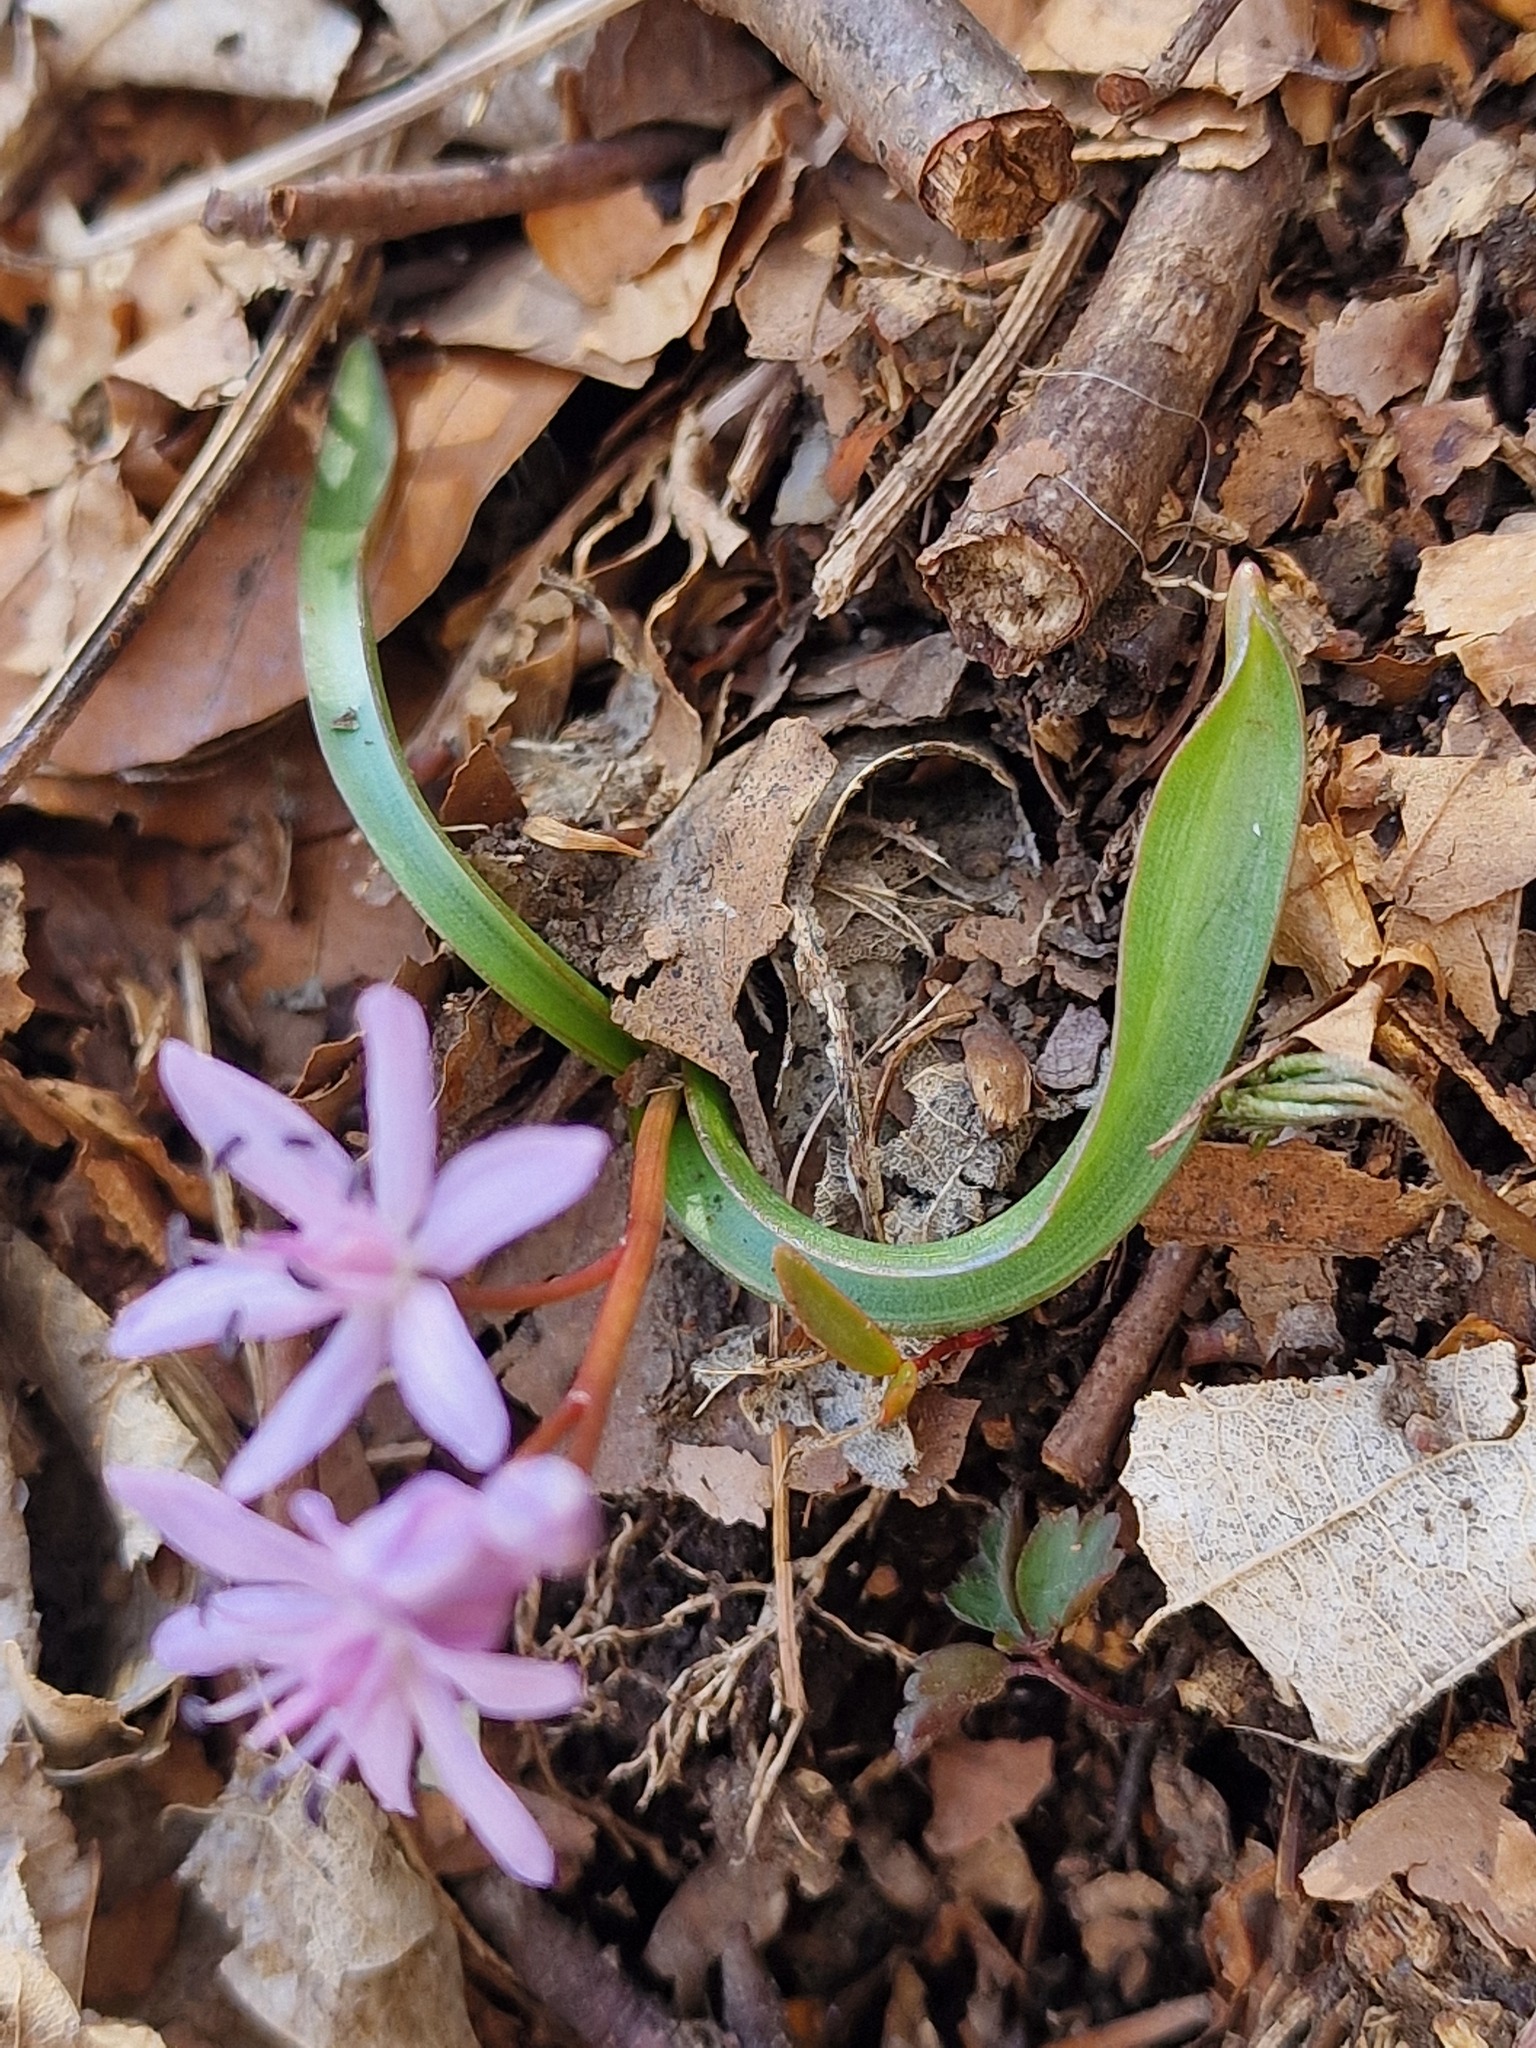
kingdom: Plantae
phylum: Tracheophyta
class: Liliopsida
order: Asparagales
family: Asparagaceae
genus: Scilla
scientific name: Scilla bifolia
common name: Alpine squill
